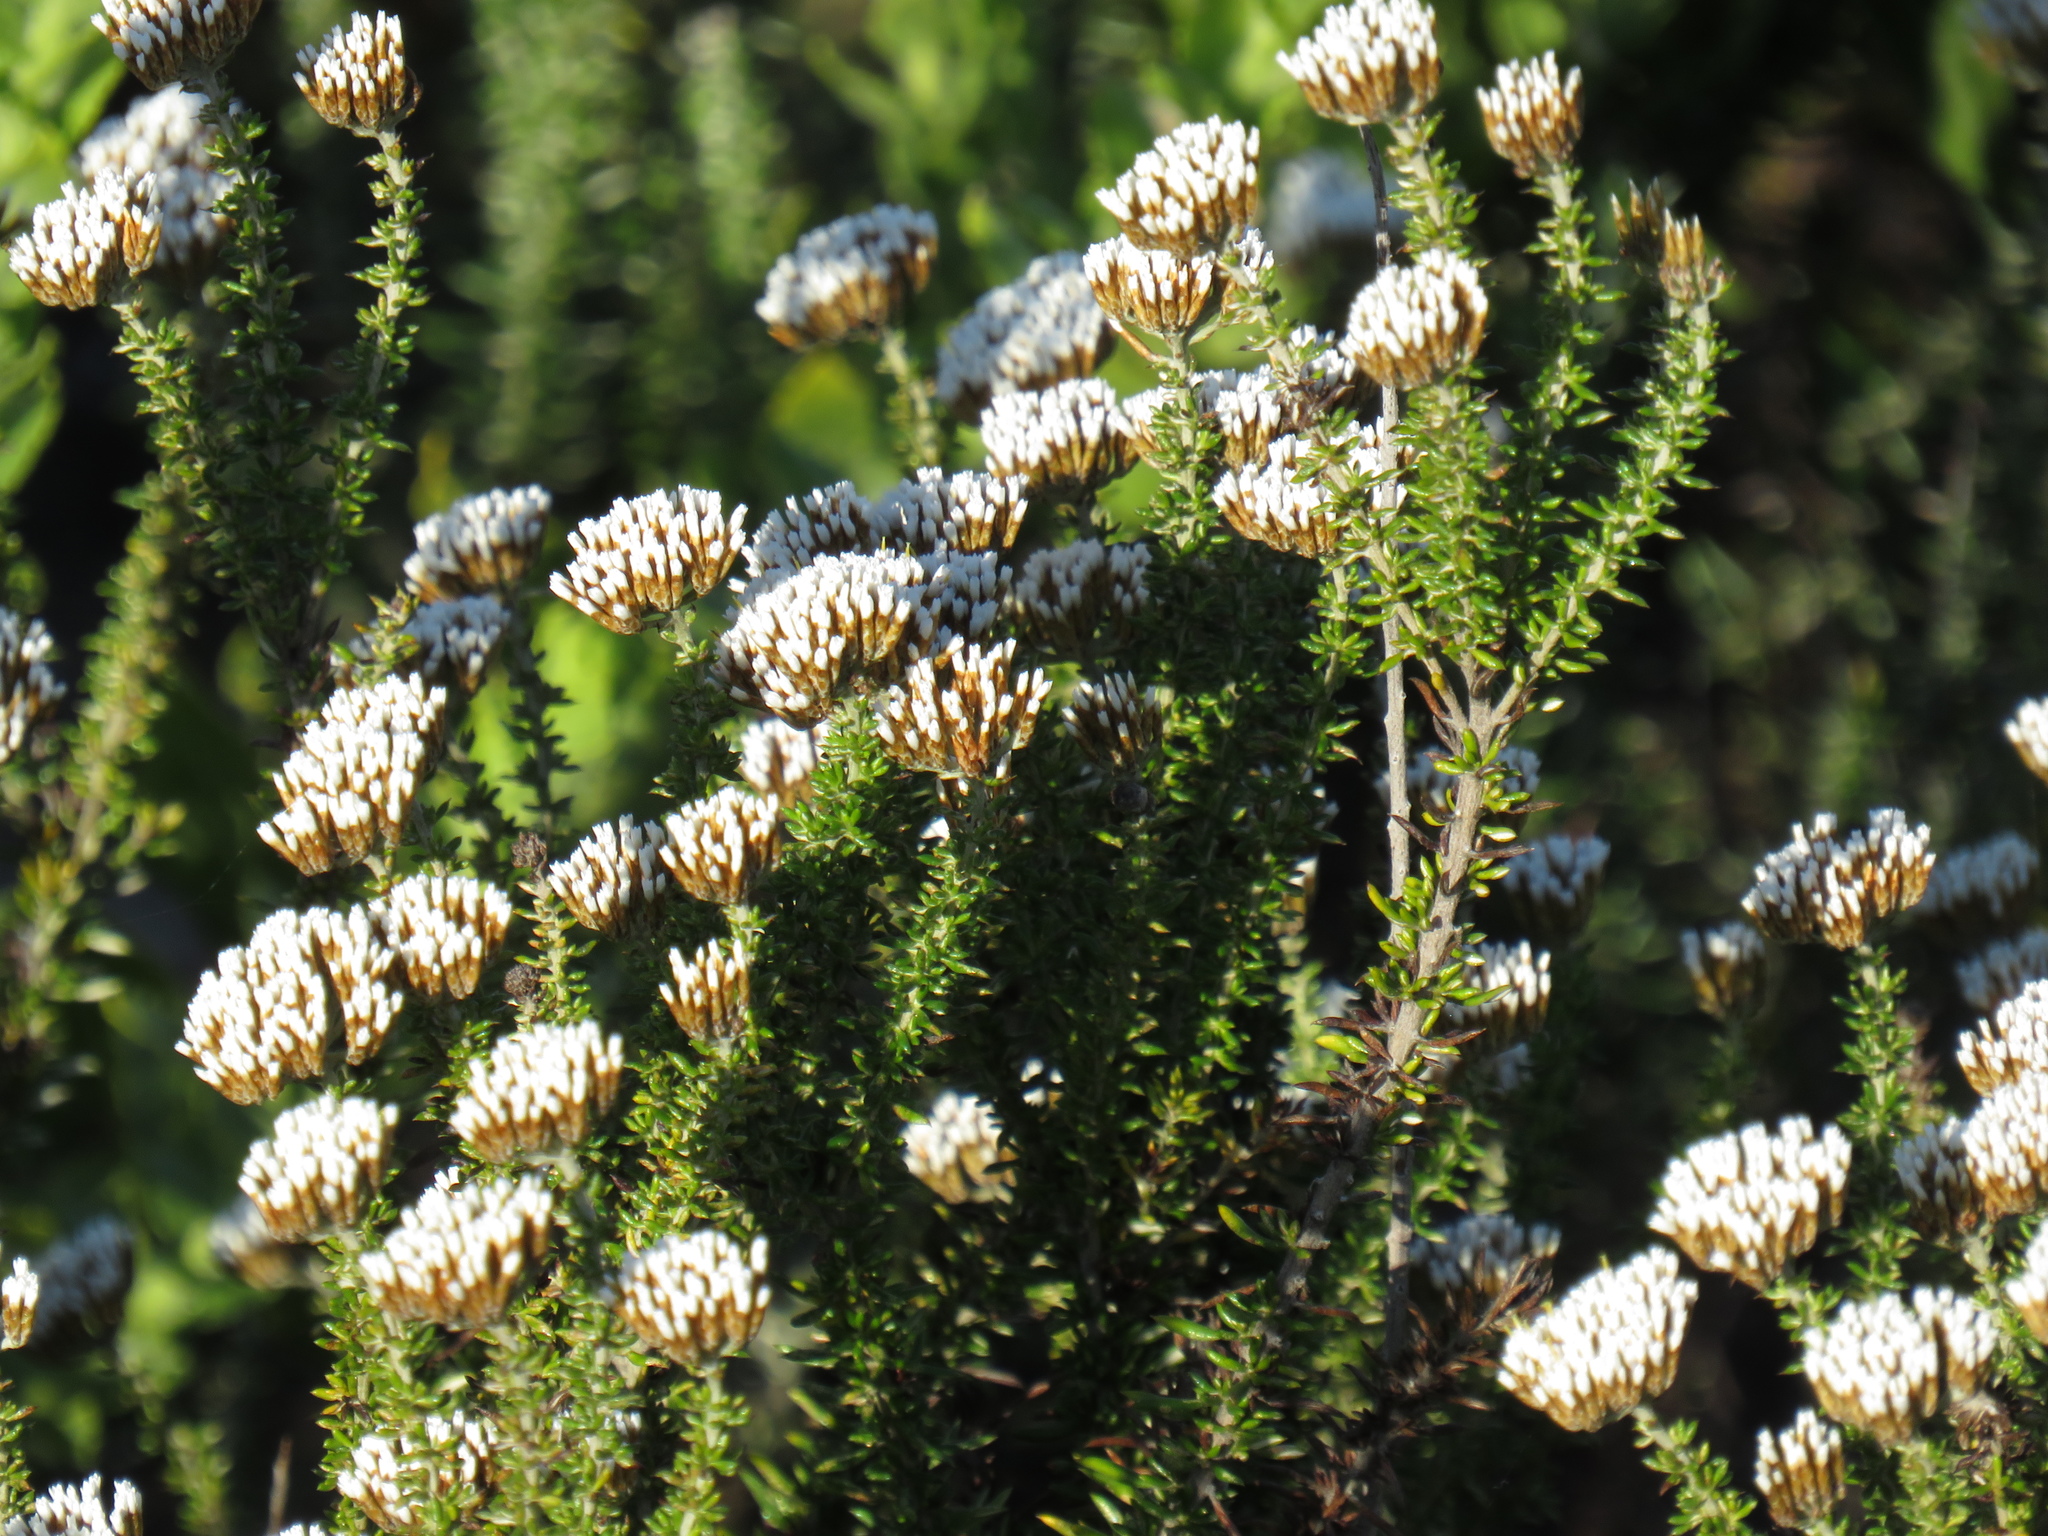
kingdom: Plantae
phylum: Tracheophyta
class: Magnoliopsida
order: Asterales
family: Asteraceae
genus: Metalasia
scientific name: Metalasia densa
